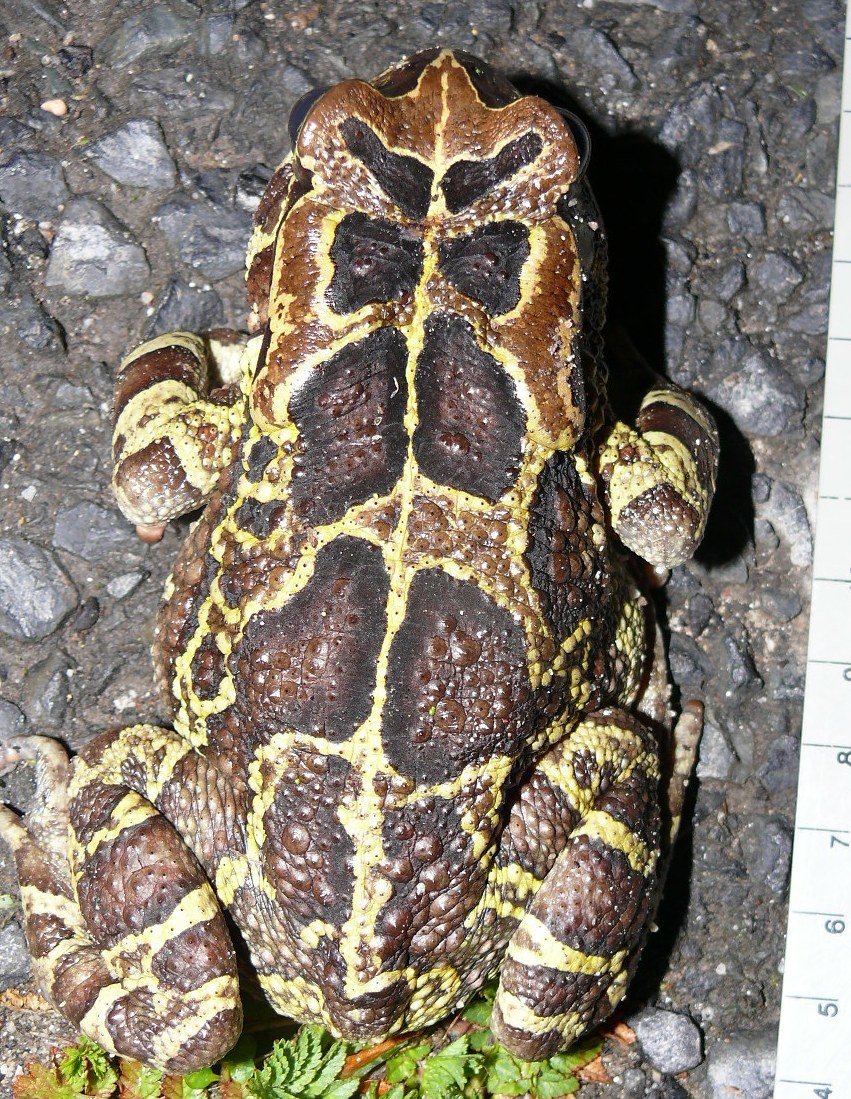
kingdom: Animalia
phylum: Chordata
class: Amphibia
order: Anura
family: Bufonidae
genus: Sclerophrys
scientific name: Sclerophrys pantherina
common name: Panther toad
